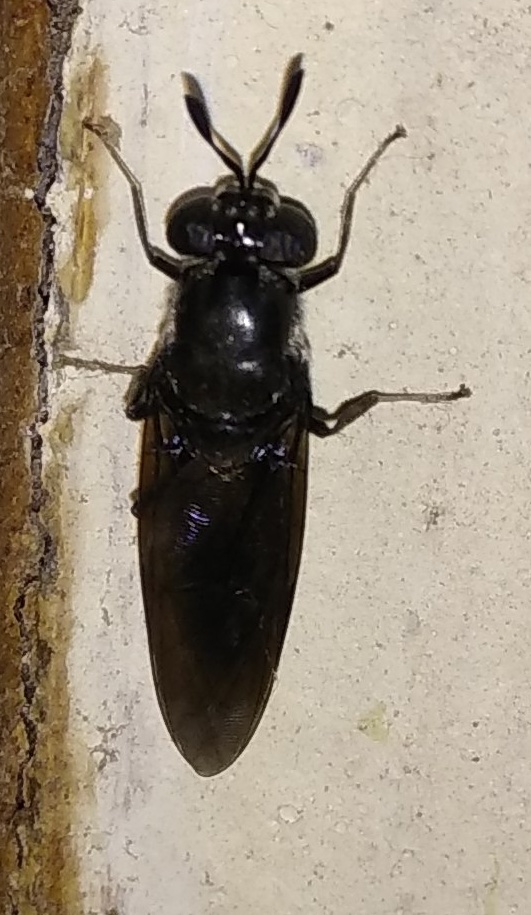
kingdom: Animalia
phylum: Arthropoda
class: Insecta
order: Diptera
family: Stratiomyidae
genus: Hermetia
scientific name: Hermetia illucens
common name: Black soldier fly
